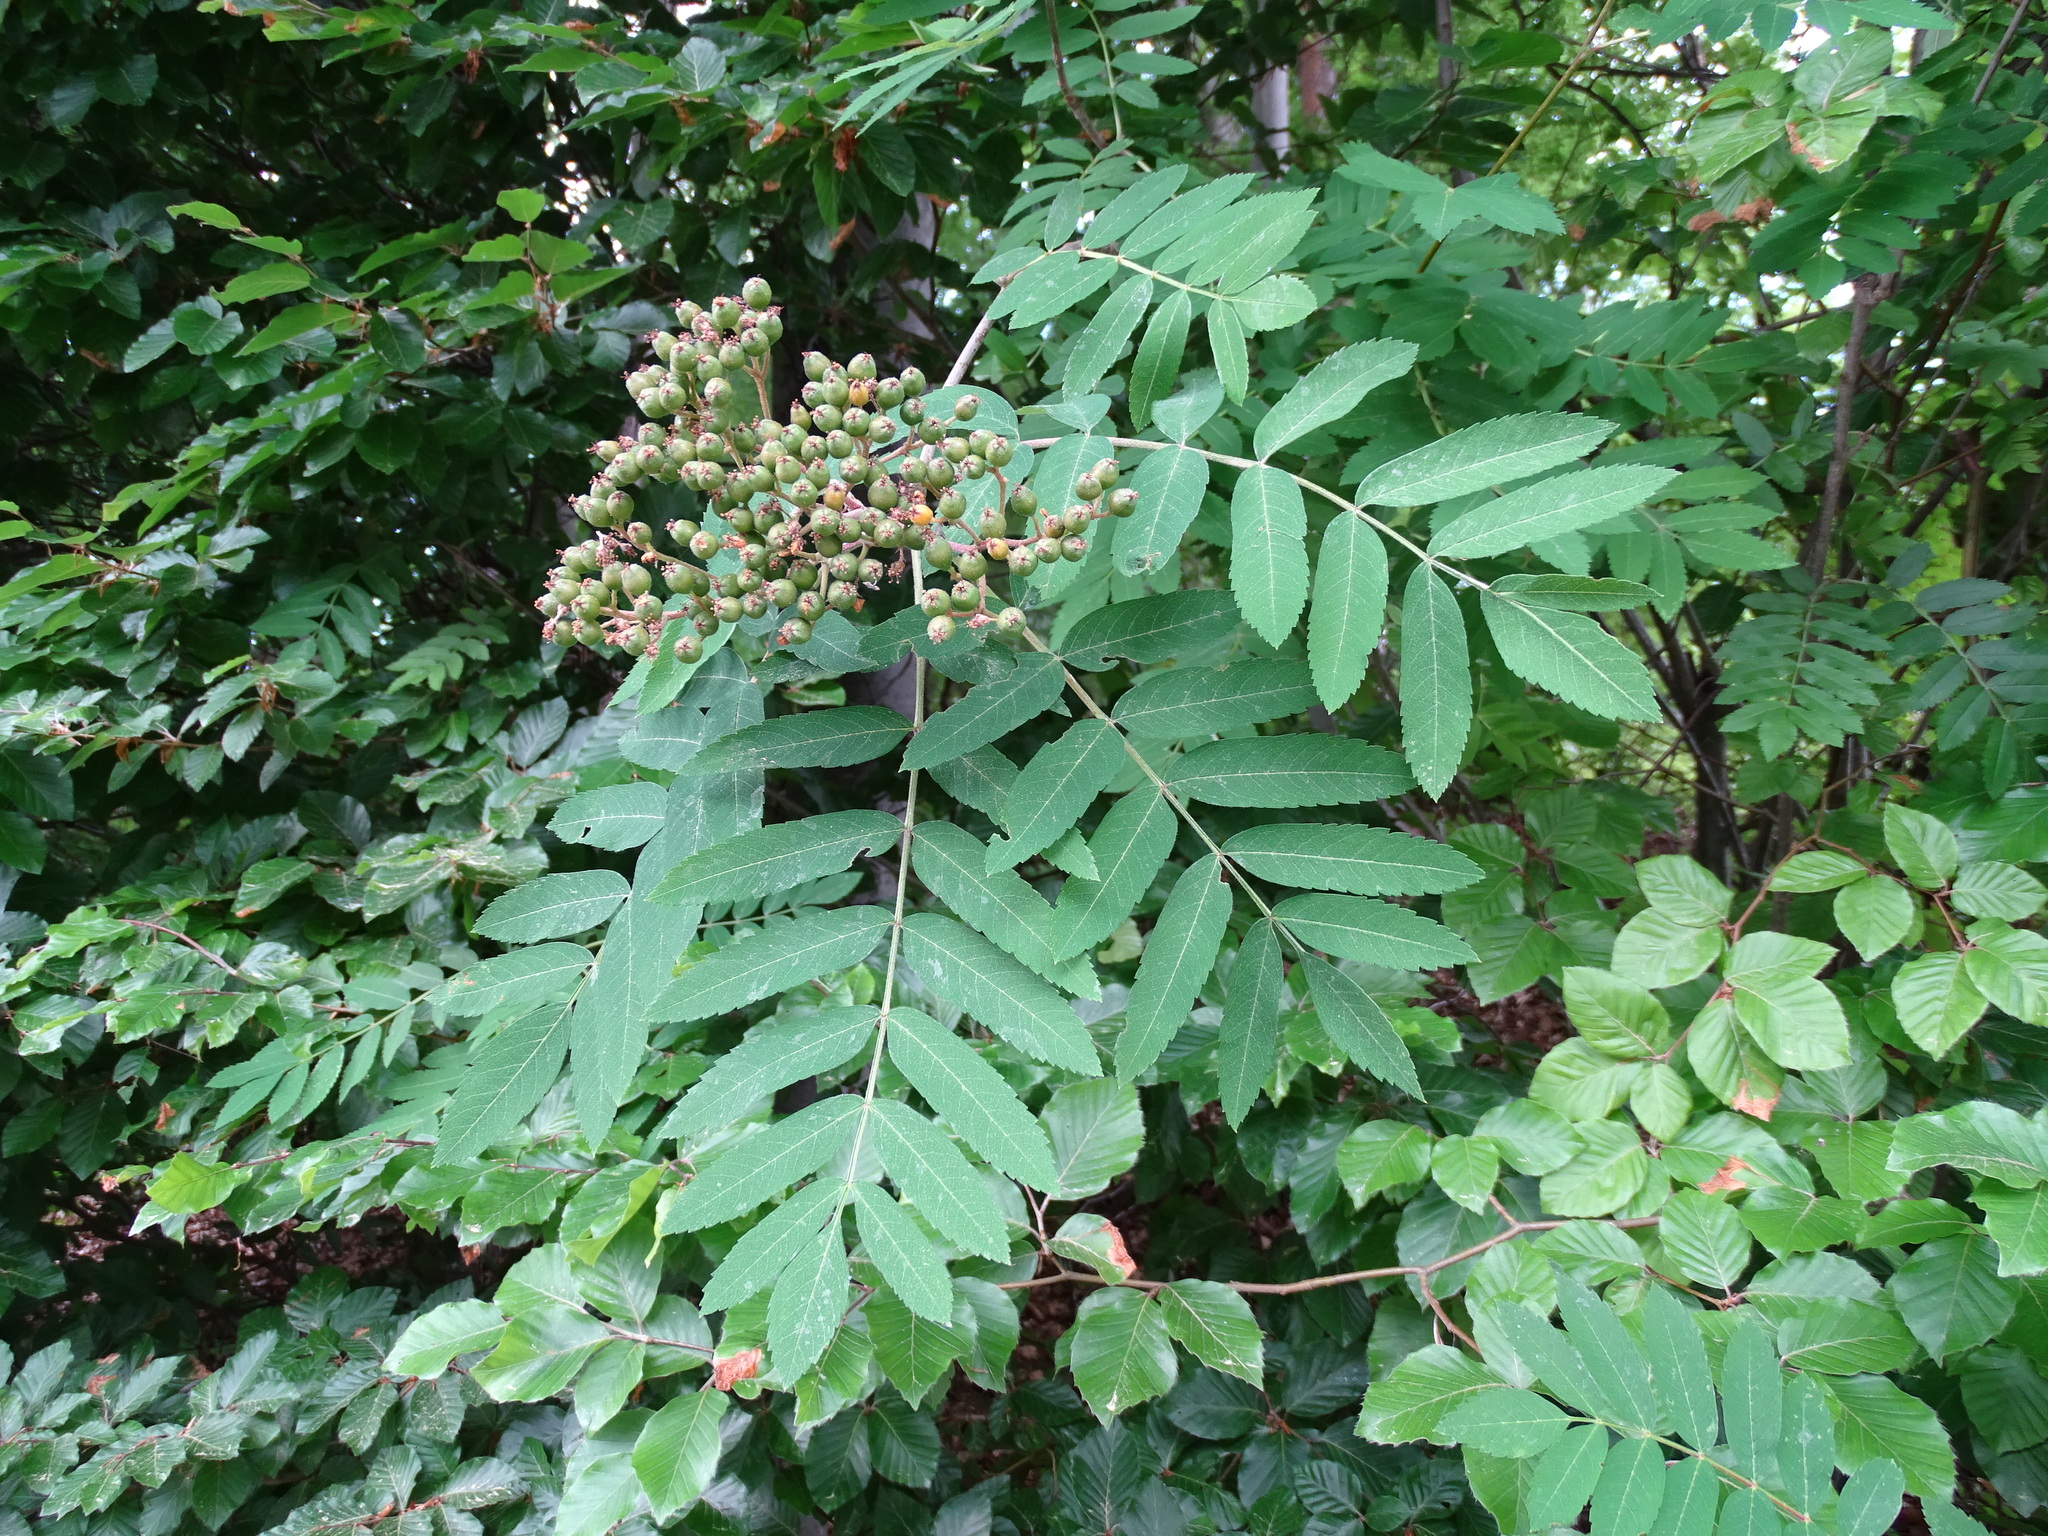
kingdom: Plantae
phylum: Tracheophyta
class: Magnoliopsida
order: Rosales
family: Rosaceae
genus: Sorbus
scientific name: Sorbus aucuparia
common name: Rowan
